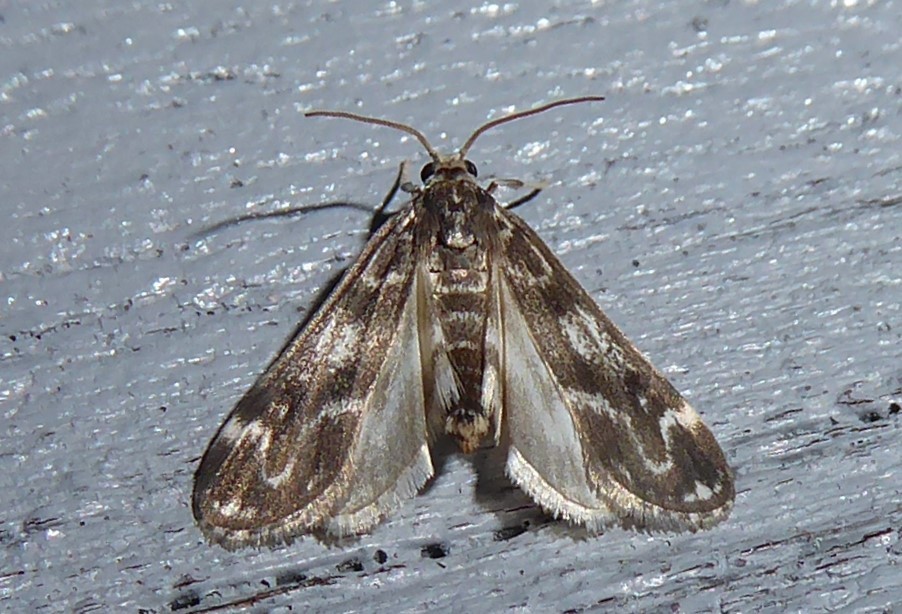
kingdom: Animalia
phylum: Arthropoda
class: Insecta
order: Lepidoptera
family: Crambidae
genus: Hygraula
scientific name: Hygraula nitens
